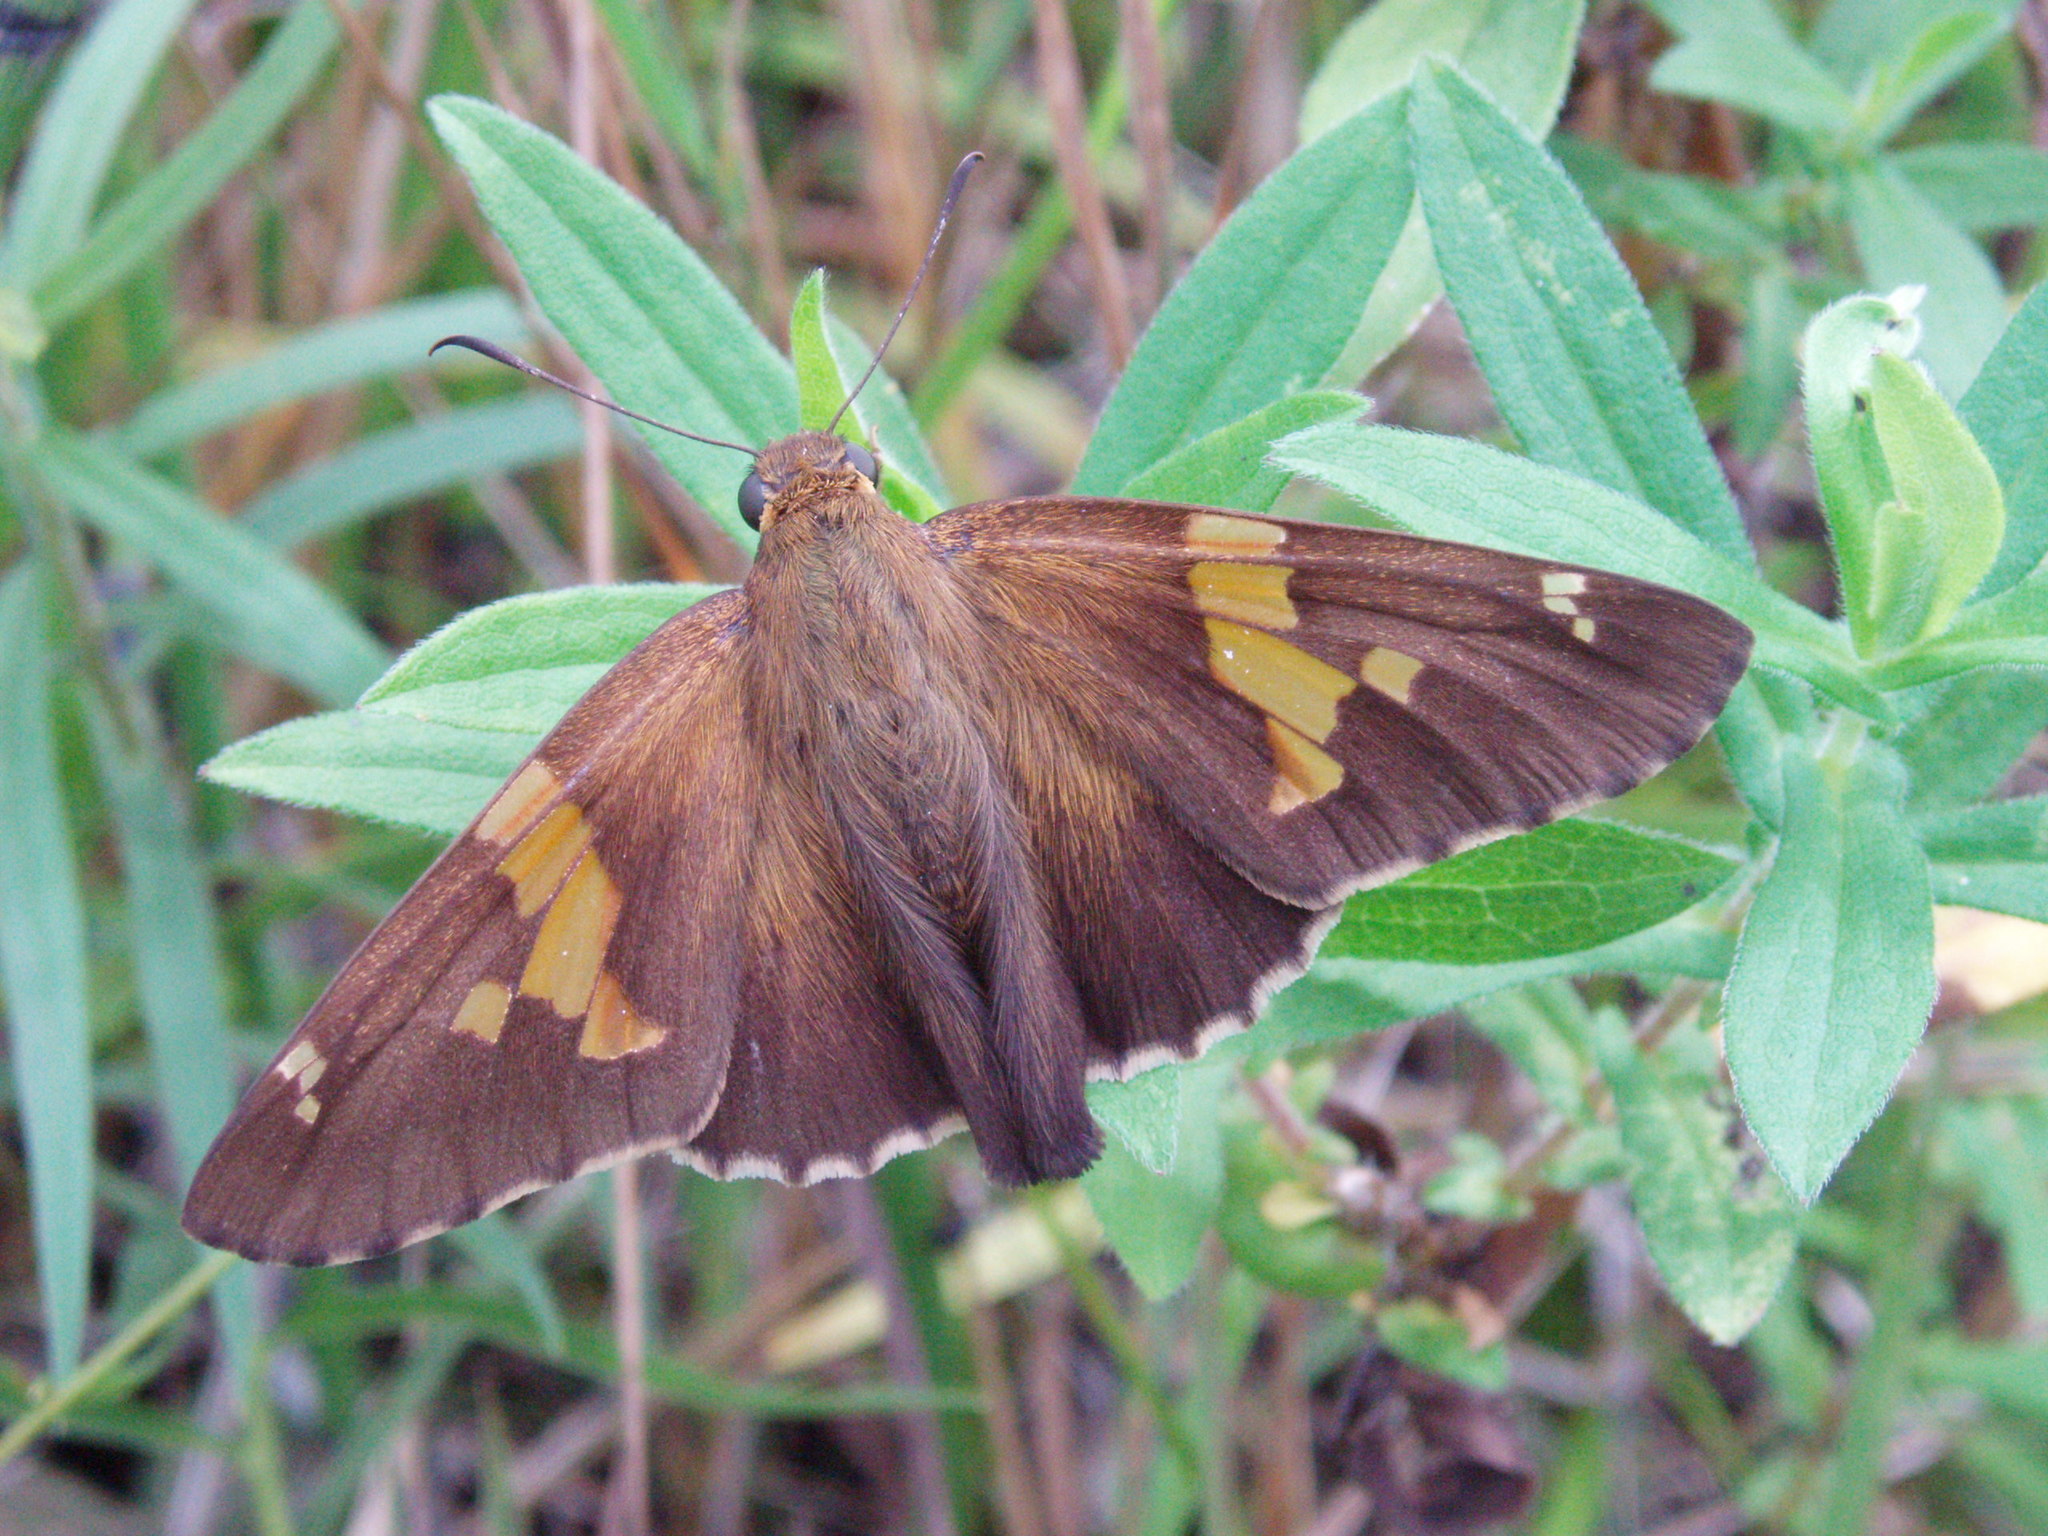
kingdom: Animalia
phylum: Arthropoda
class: Insecta
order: Lepidoptera
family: Hesperiidae
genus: Epargyreus
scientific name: Epargyreus clarus
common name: Silver-spotted skipper
